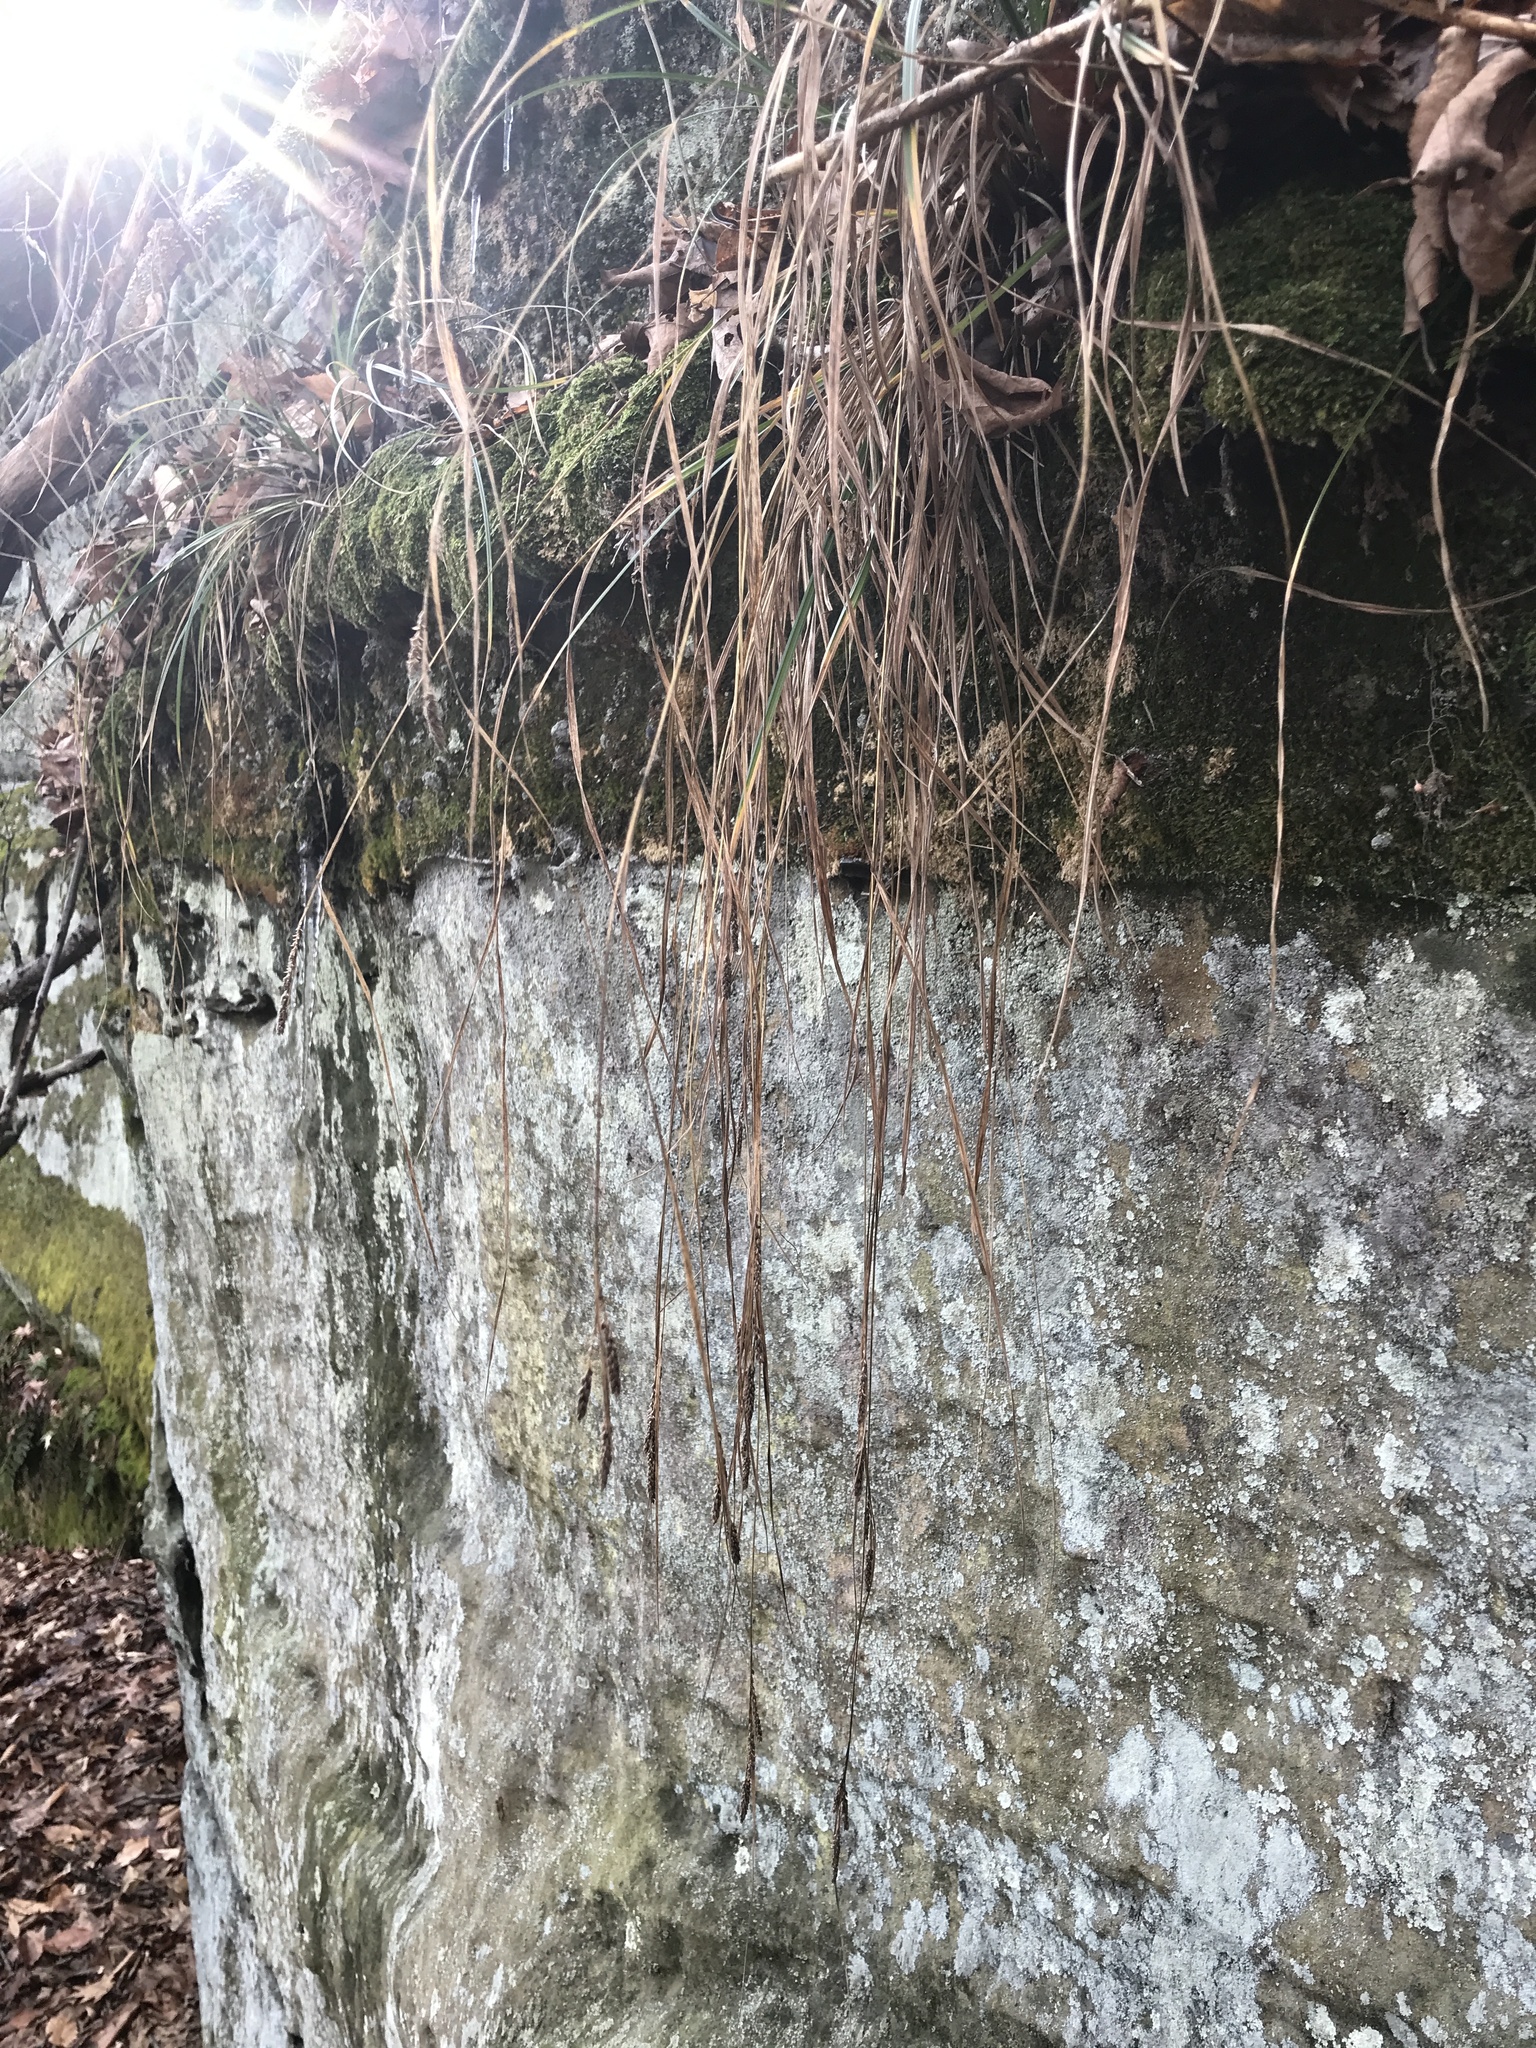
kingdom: Plantae
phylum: Tracheophyta
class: Liliopsida
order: Poales
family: Cyperaceae
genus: Carex
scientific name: Carex virescens
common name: Ribbed sedge
